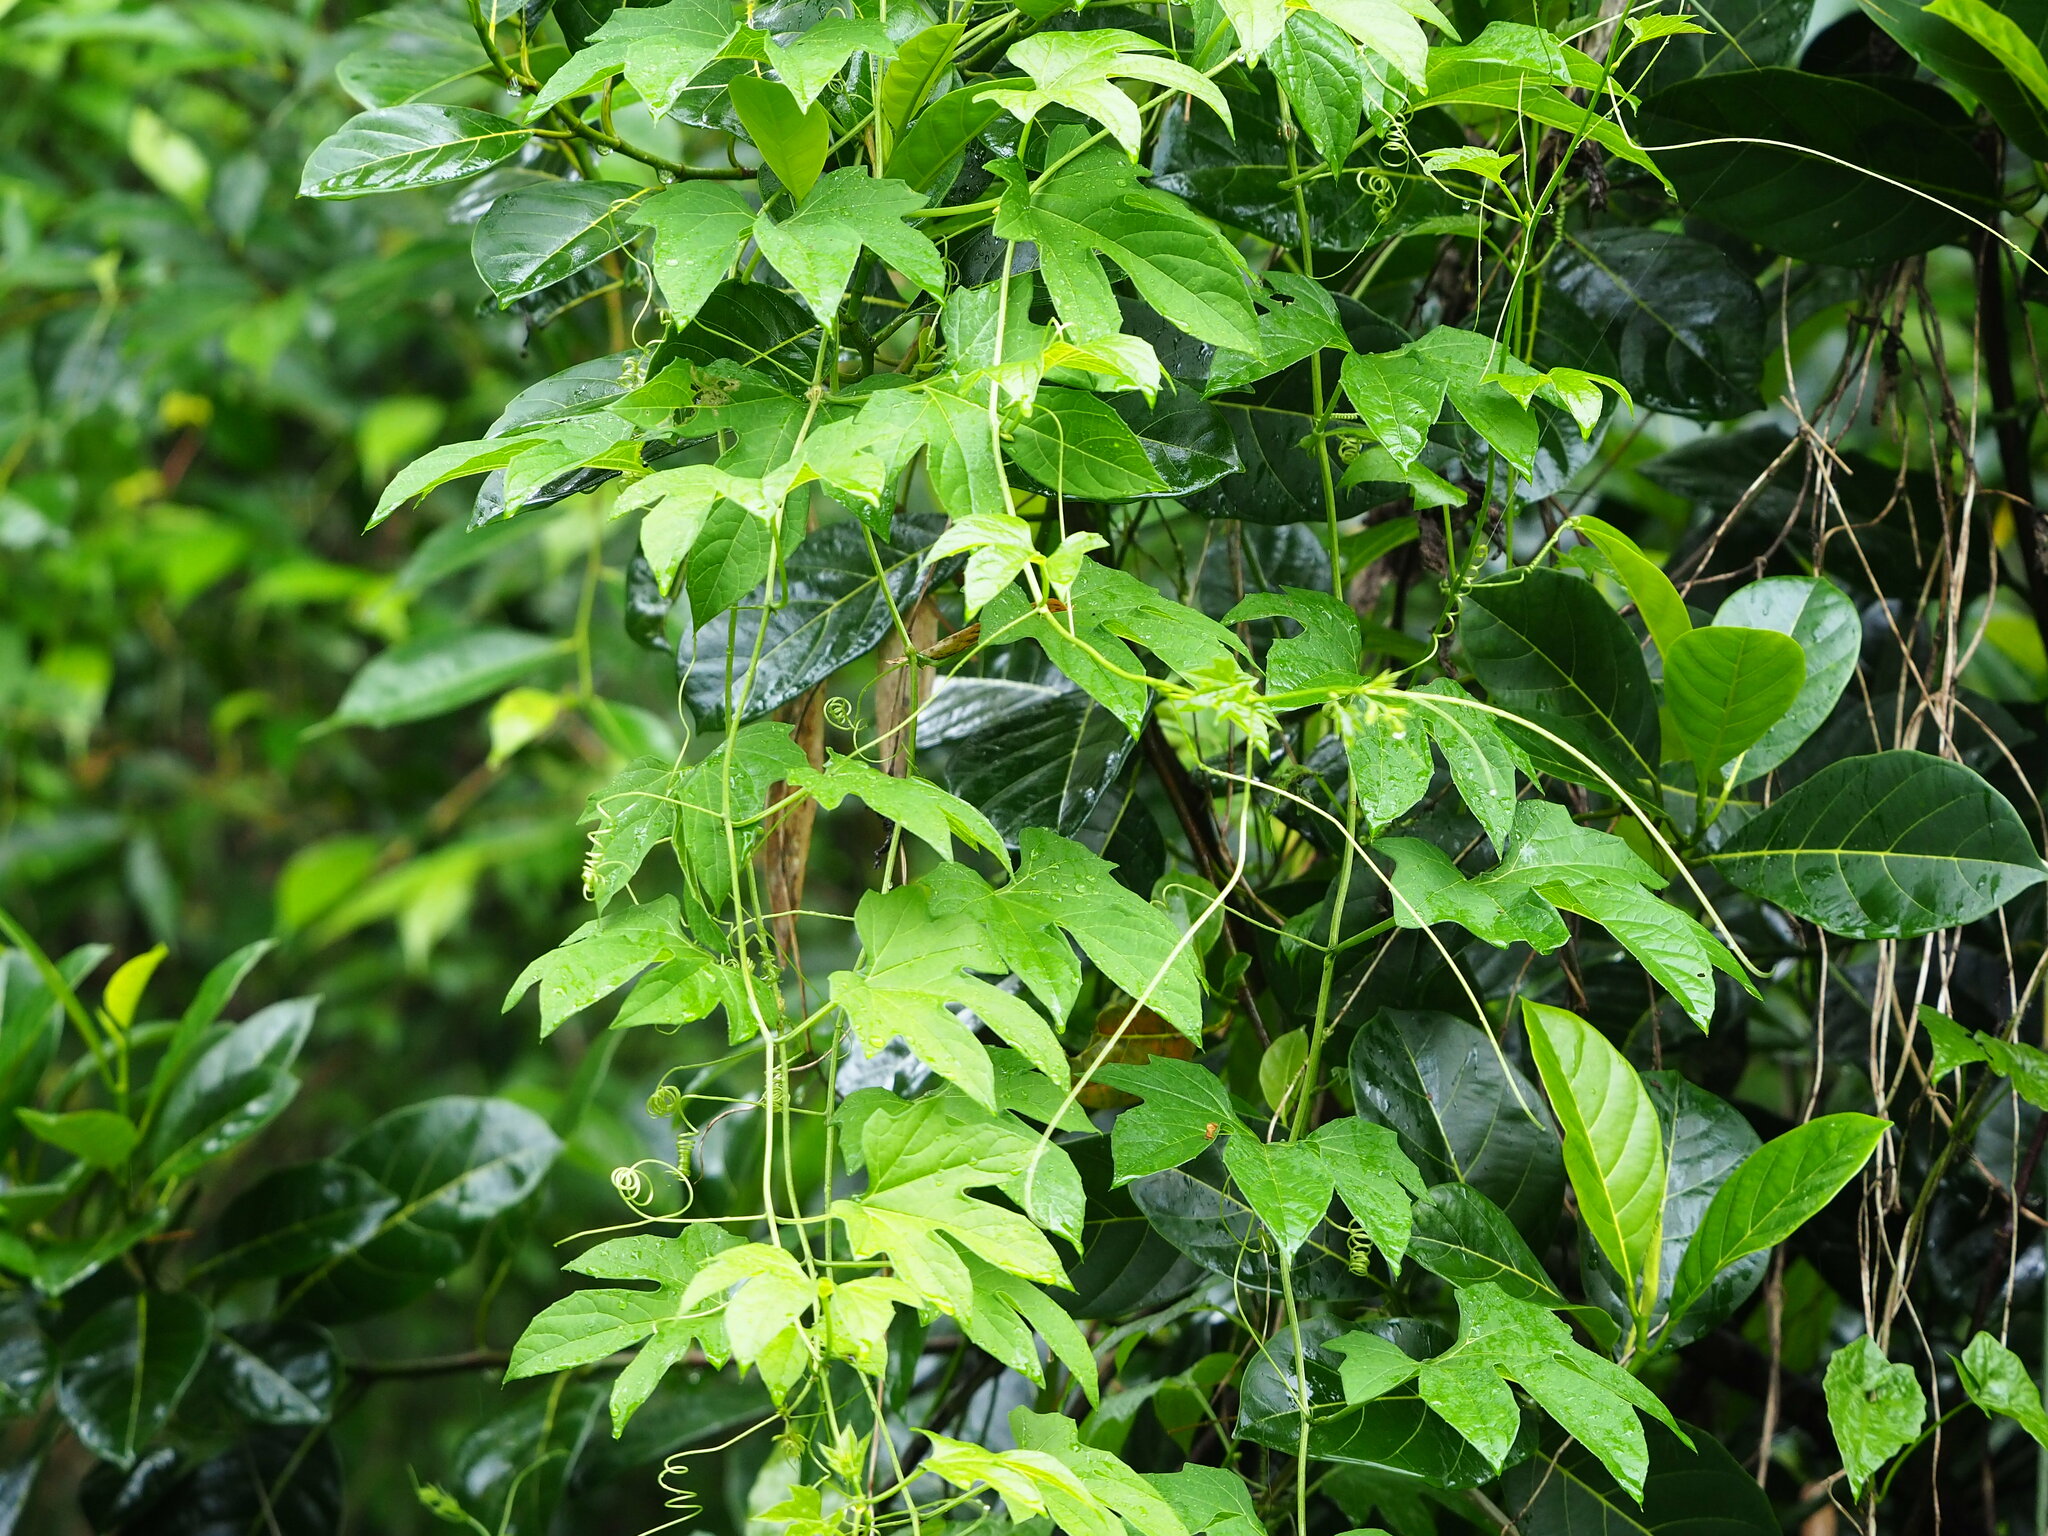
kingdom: Plantae
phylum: Tracheophyta
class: Magnoliopsida
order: Cucurbitales
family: Cucurbitaceae
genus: Momordica
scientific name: Momordica cochinchinensis
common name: Chinese bitter-cucumber
